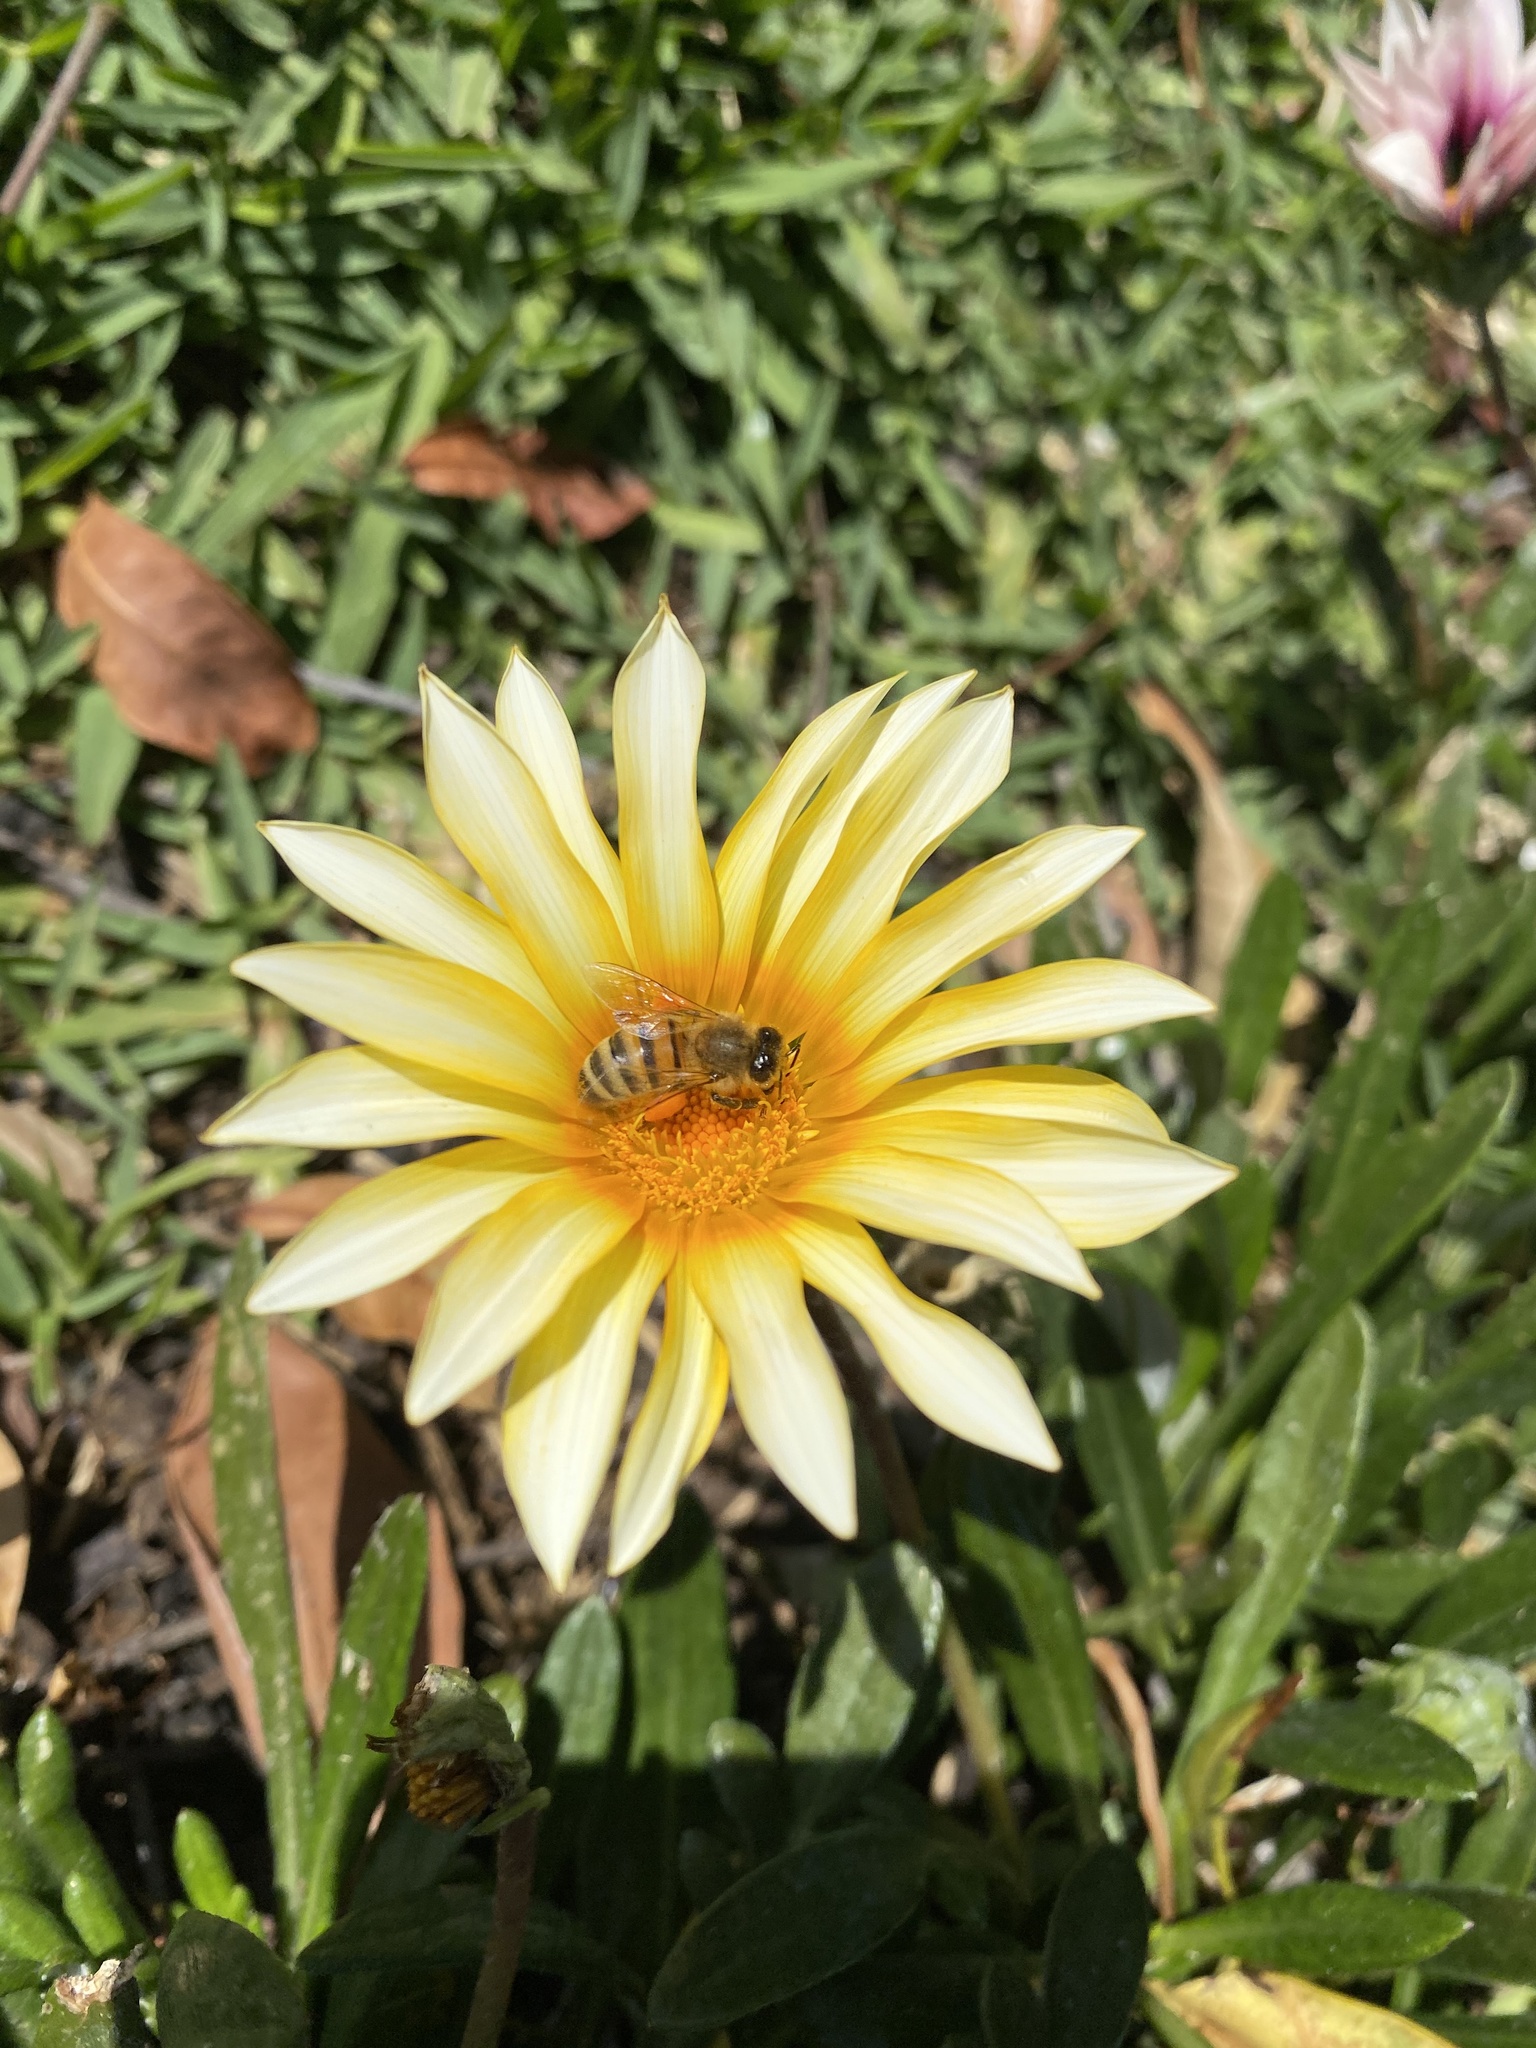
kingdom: Animalia
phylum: Arthropoda
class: Insecta
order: Hymenoptera
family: Apidae
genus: Apis
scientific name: Apis mellifera
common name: Honey bee
